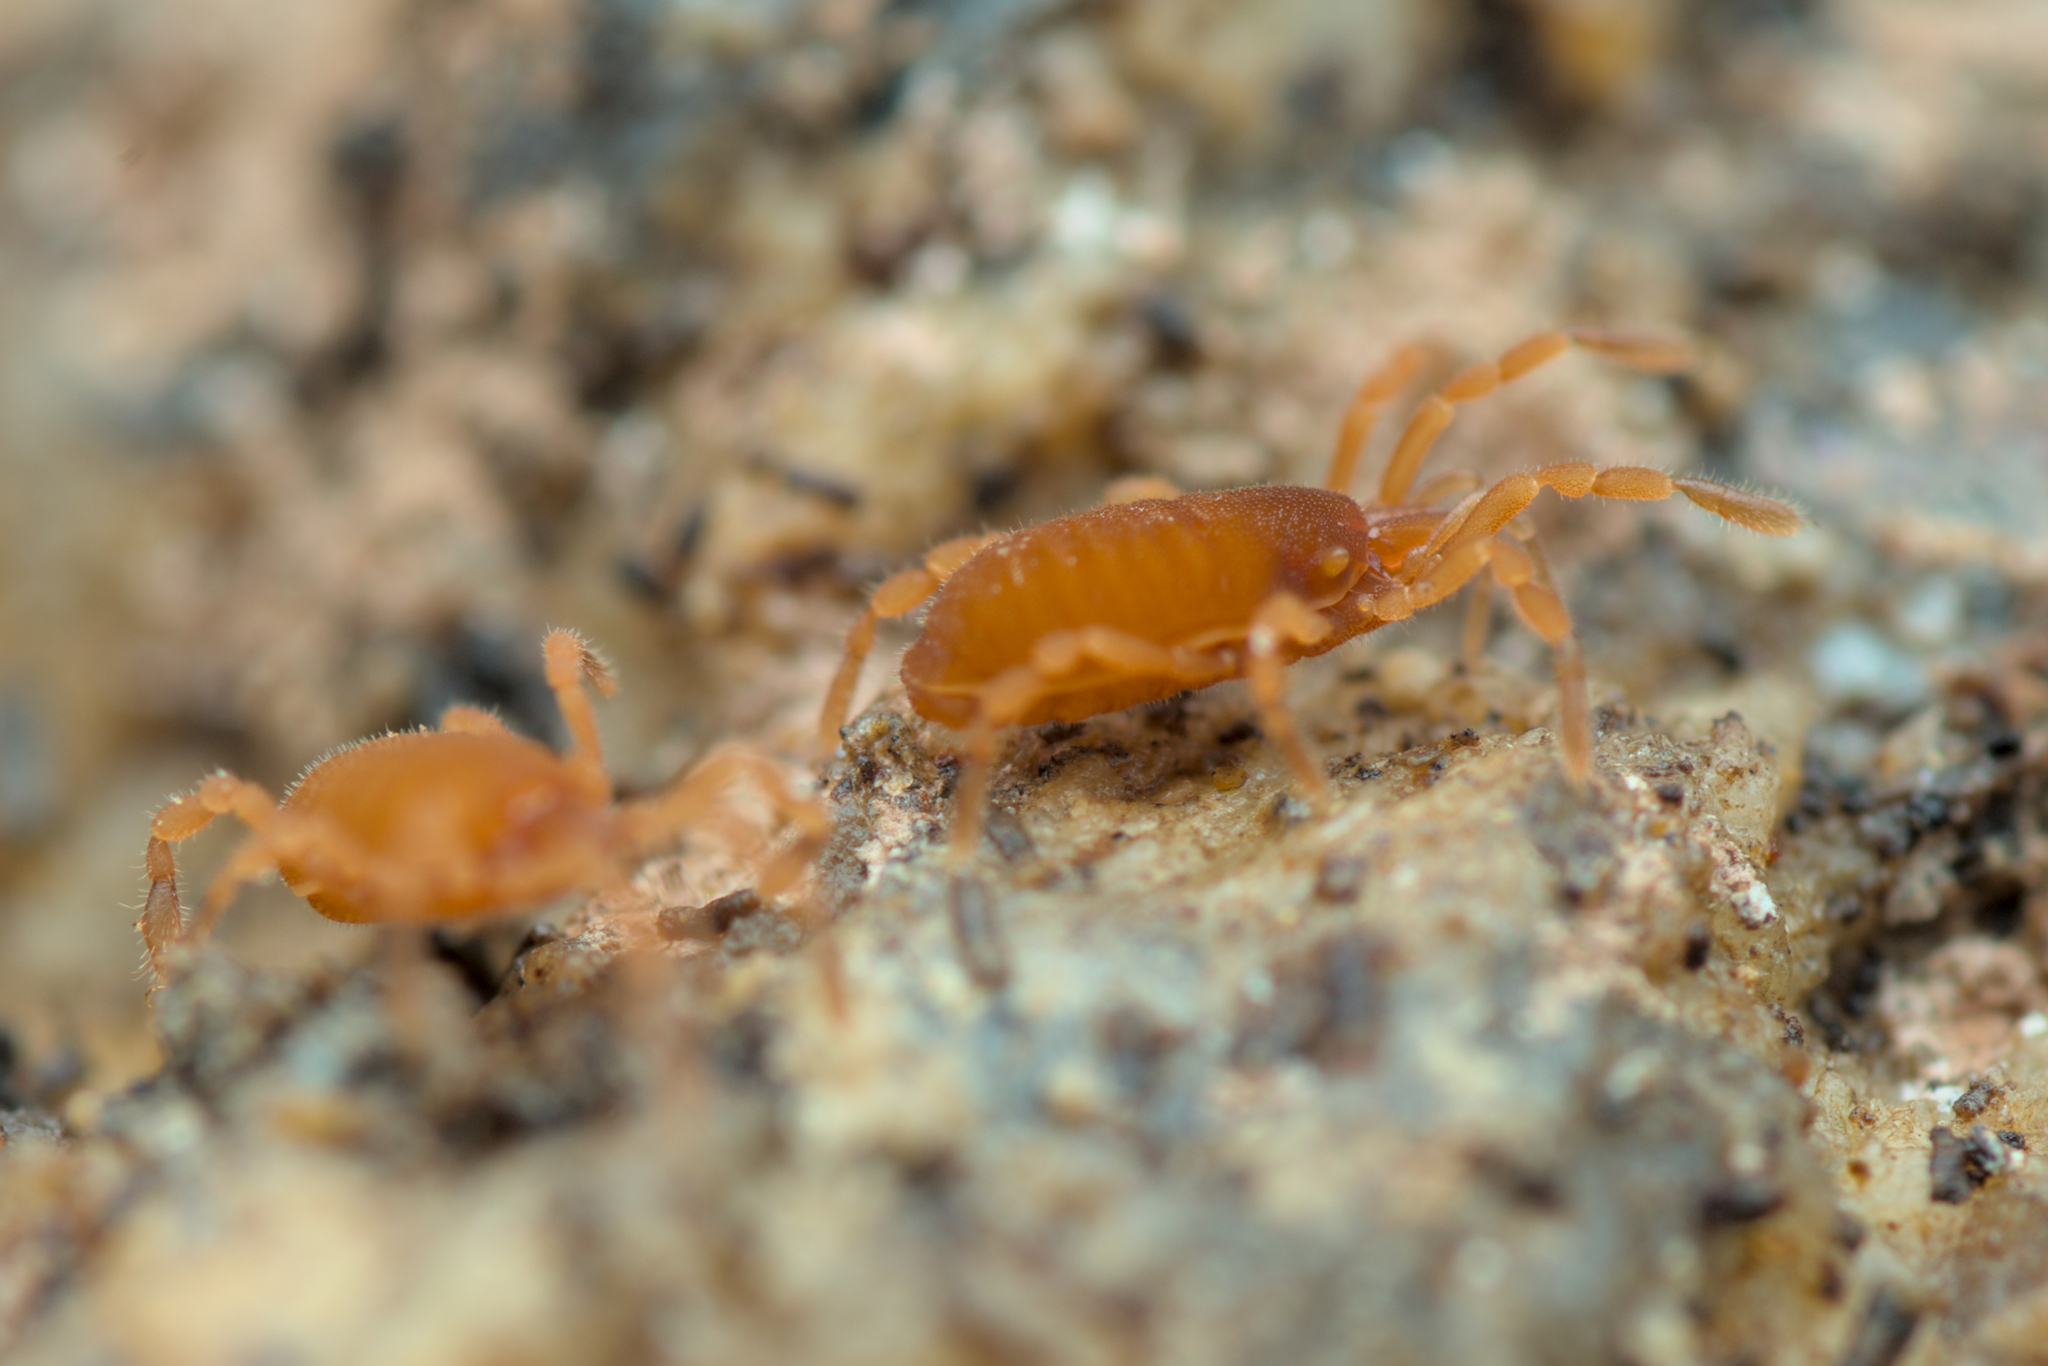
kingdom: Animalia
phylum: Arthropoda
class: Arachnida
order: Opiliones
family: Sironidae
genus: Siro
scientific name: Siro rubens
